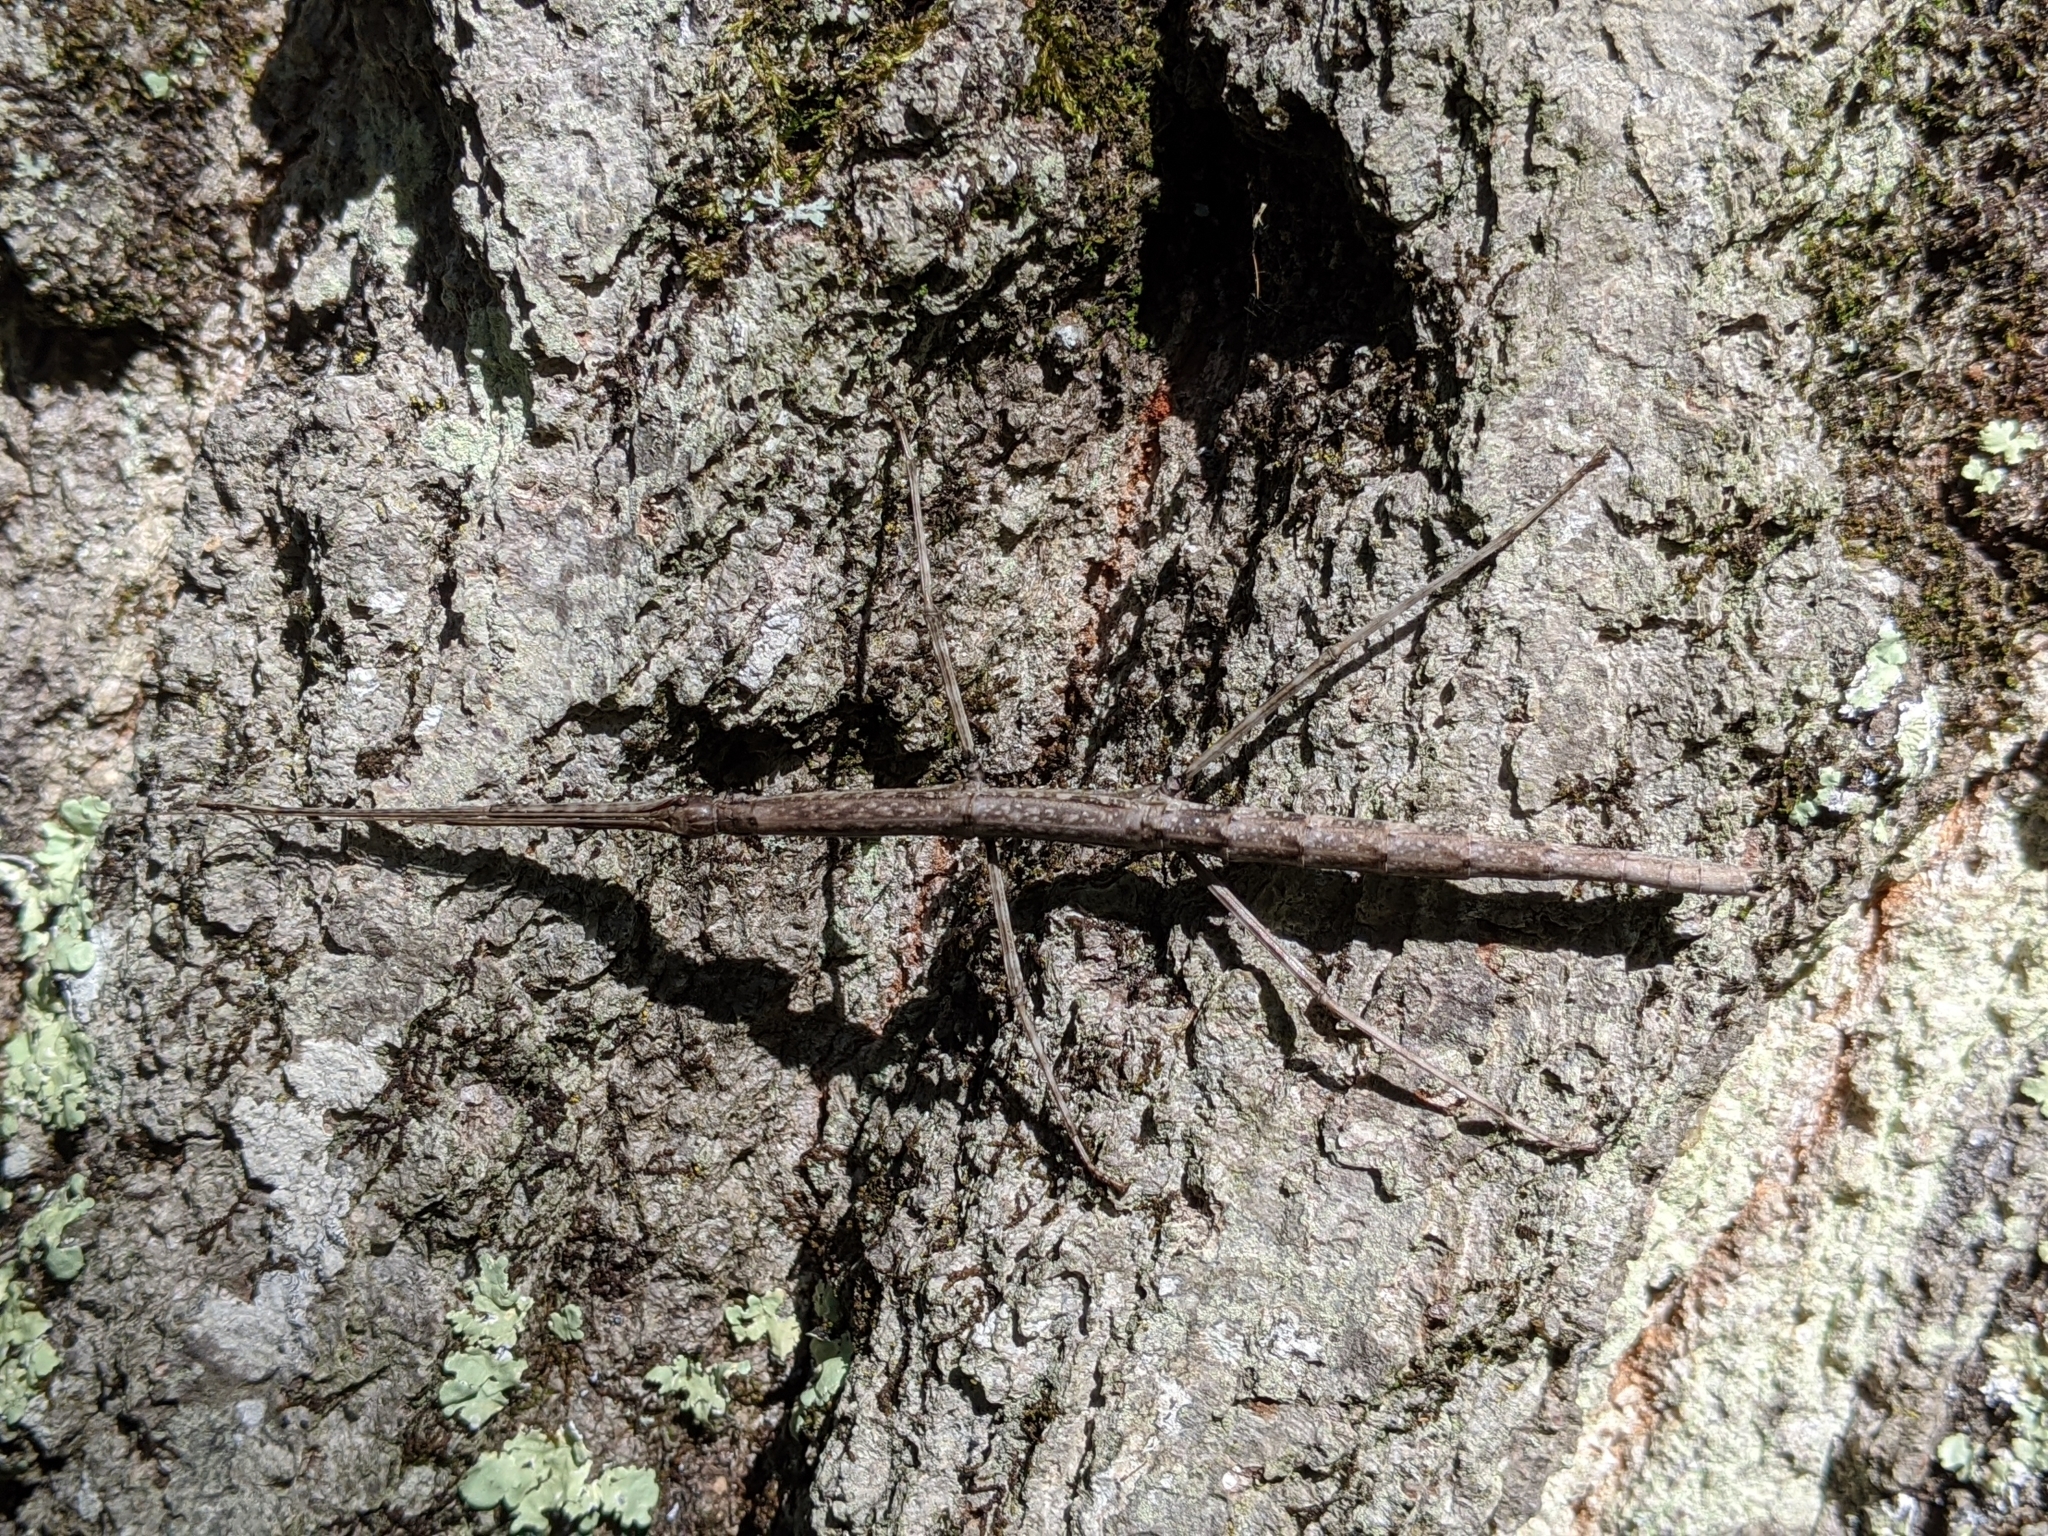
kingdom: Animalia
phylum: Arthropoda
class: Insecta
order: Phasmida
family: Diapheromeridae
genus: Diapheromera
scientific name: Diapheromera femorata
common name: Common american walkingstick
